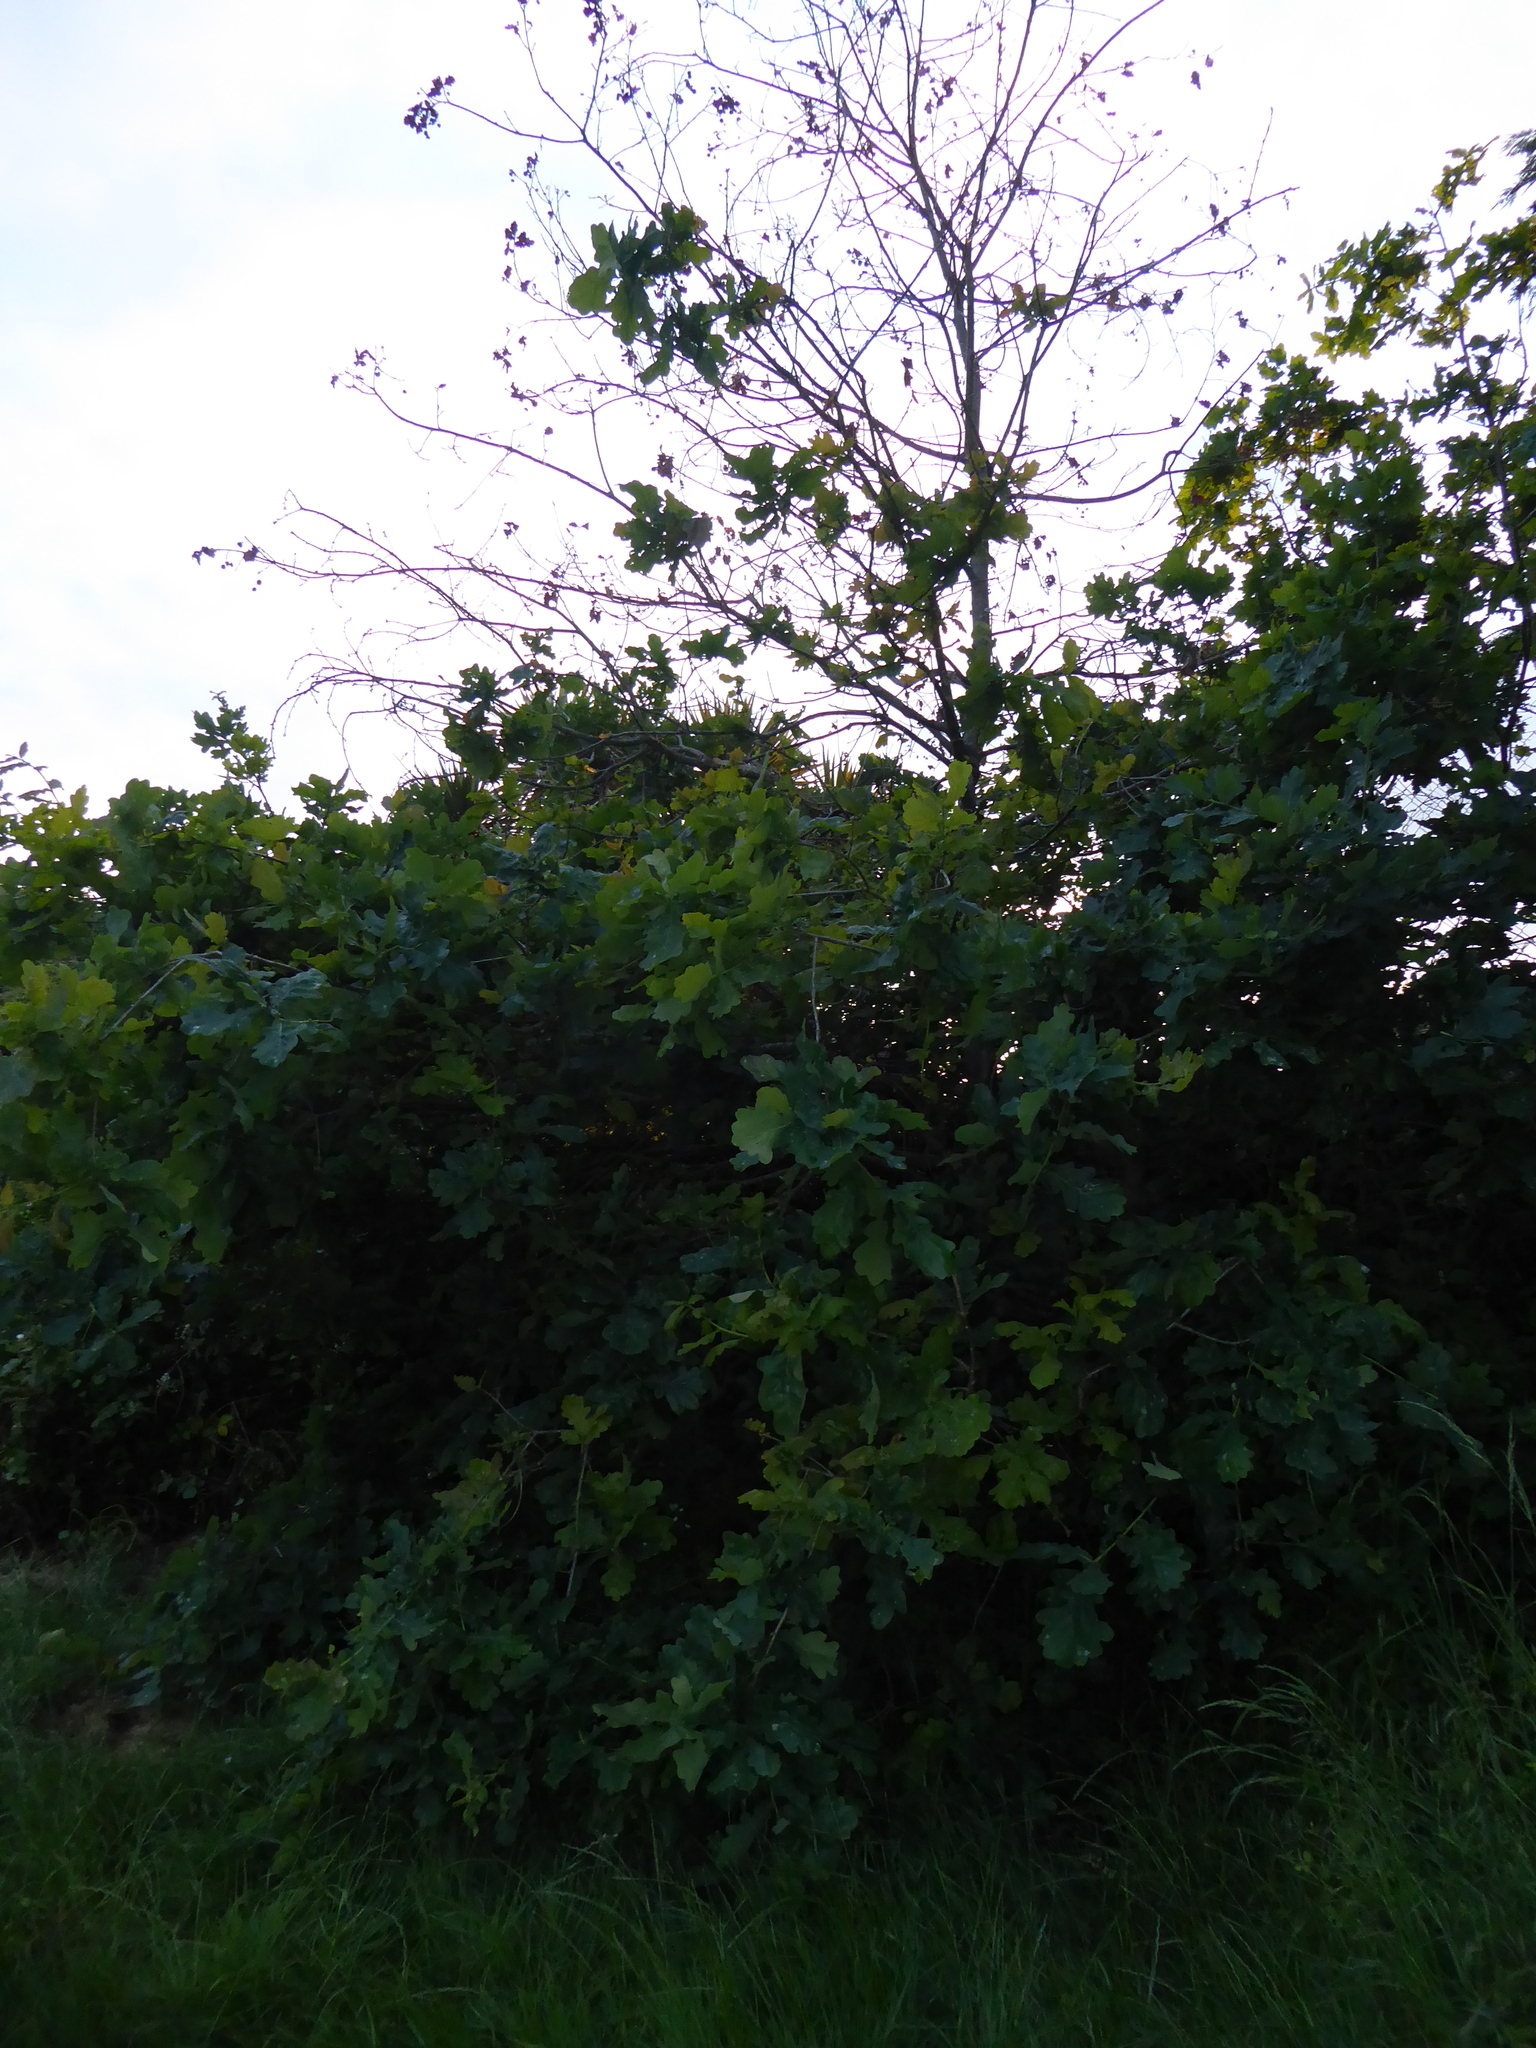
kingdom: Plantae
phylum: Tracheophyta
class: Magnoliopsida
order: Fagales
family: Fagaceae
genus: Quercus
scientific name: Quercus robur
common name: Pedunculate oak
